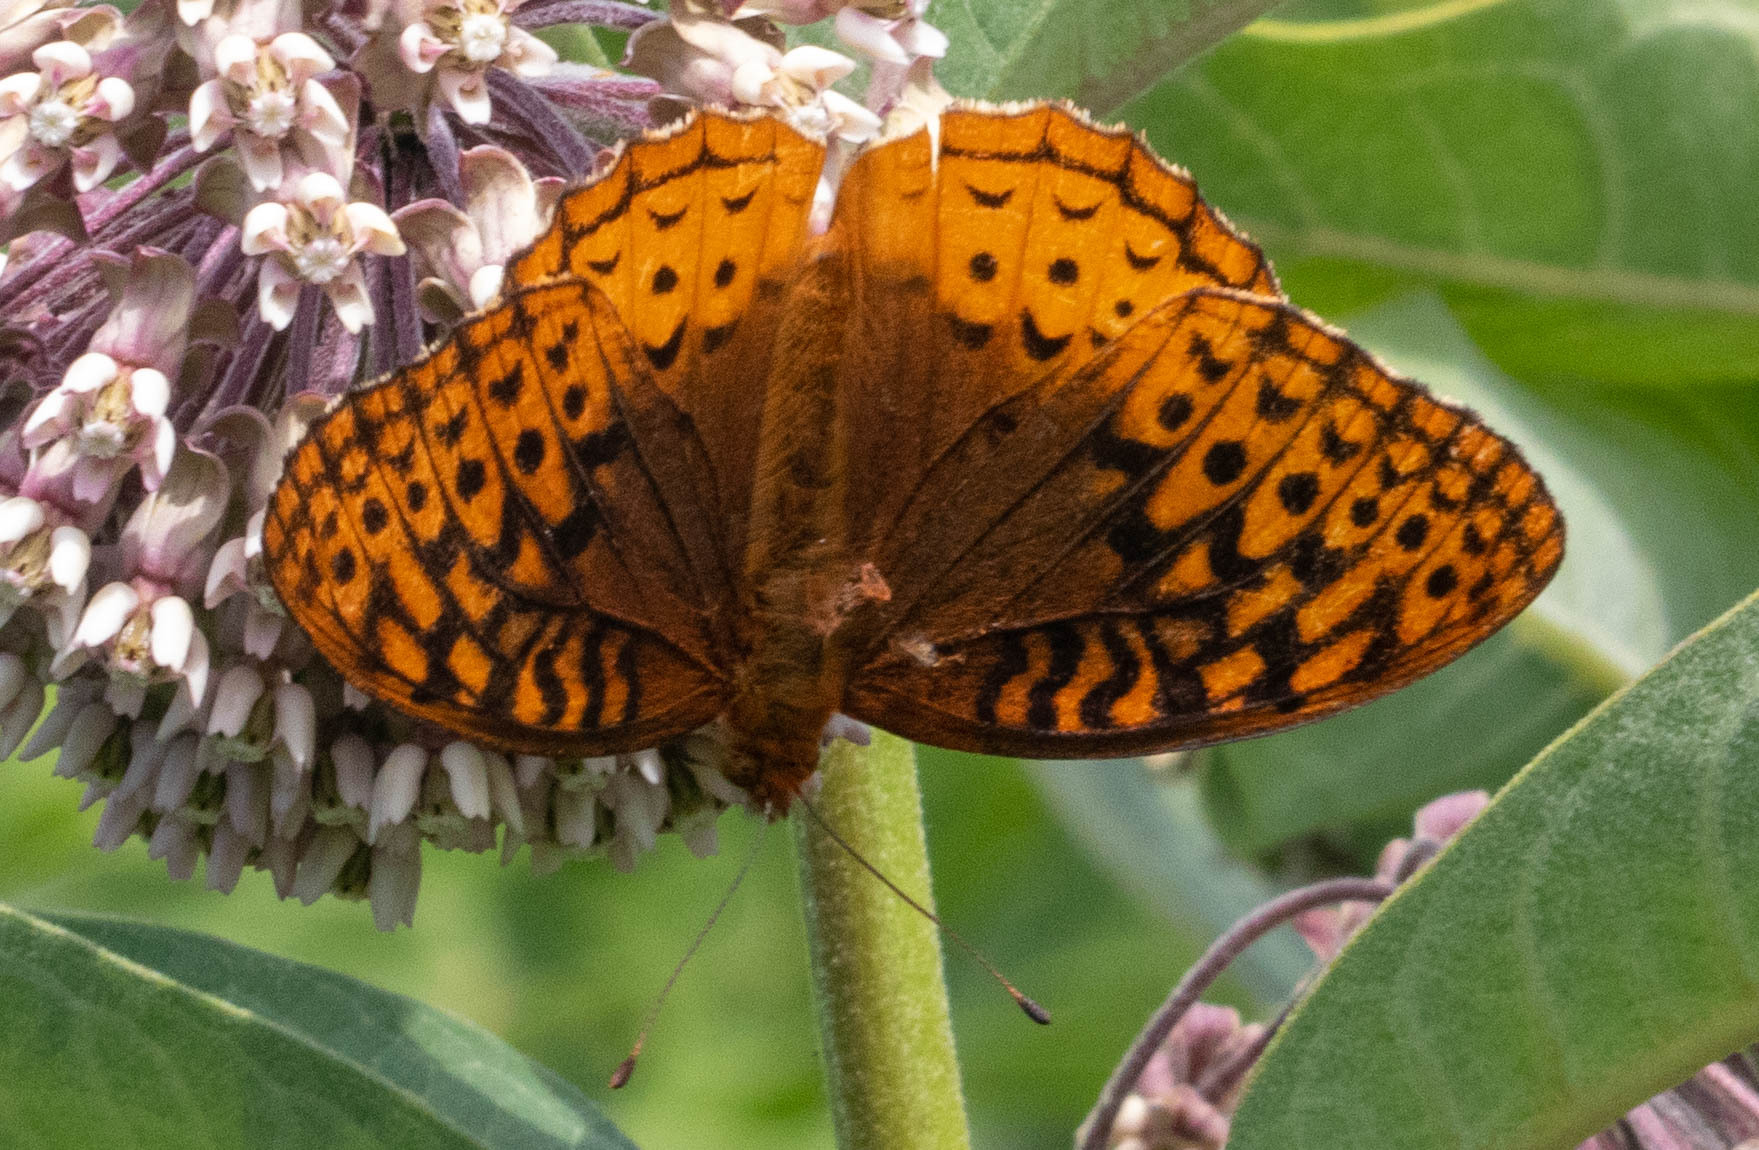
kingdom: Animalia
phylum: Arthropoda
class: Insecta
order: Lepidoptera
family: Nymphalidae
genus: Speyeria
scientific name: Speyeria cybele
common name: Great spangled fritillary
